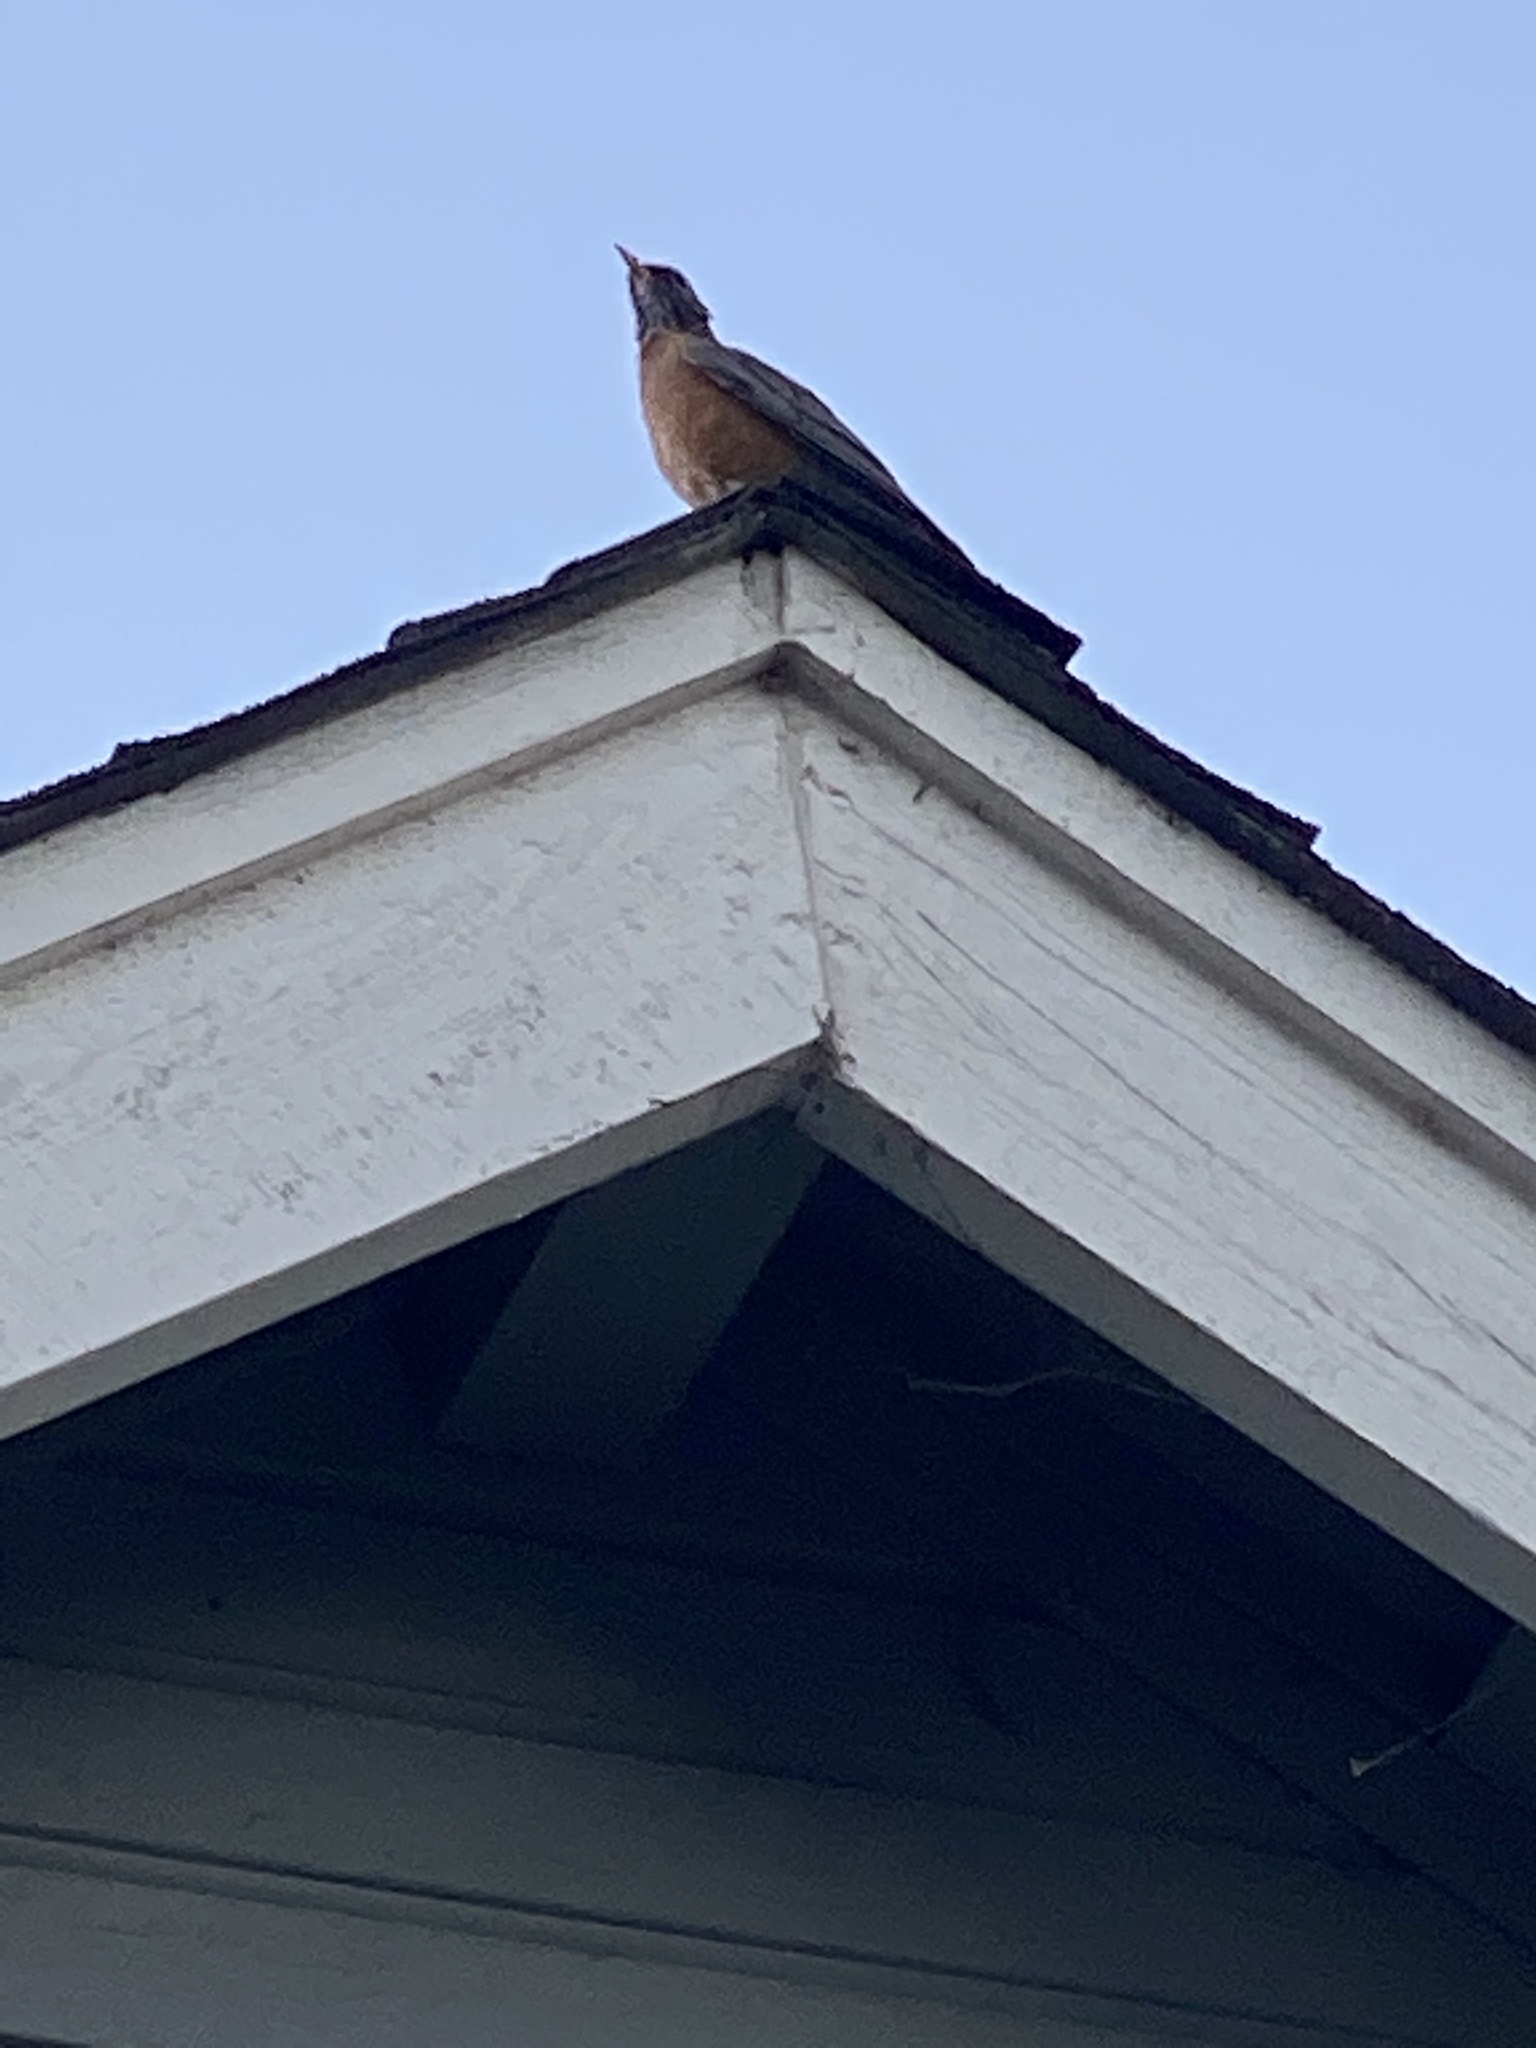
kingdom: Animalia
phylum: Chordata
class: Aves
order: Passeriformes
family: Turdidae
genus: Turdus
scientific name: Turdus migratorius
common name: American robin
